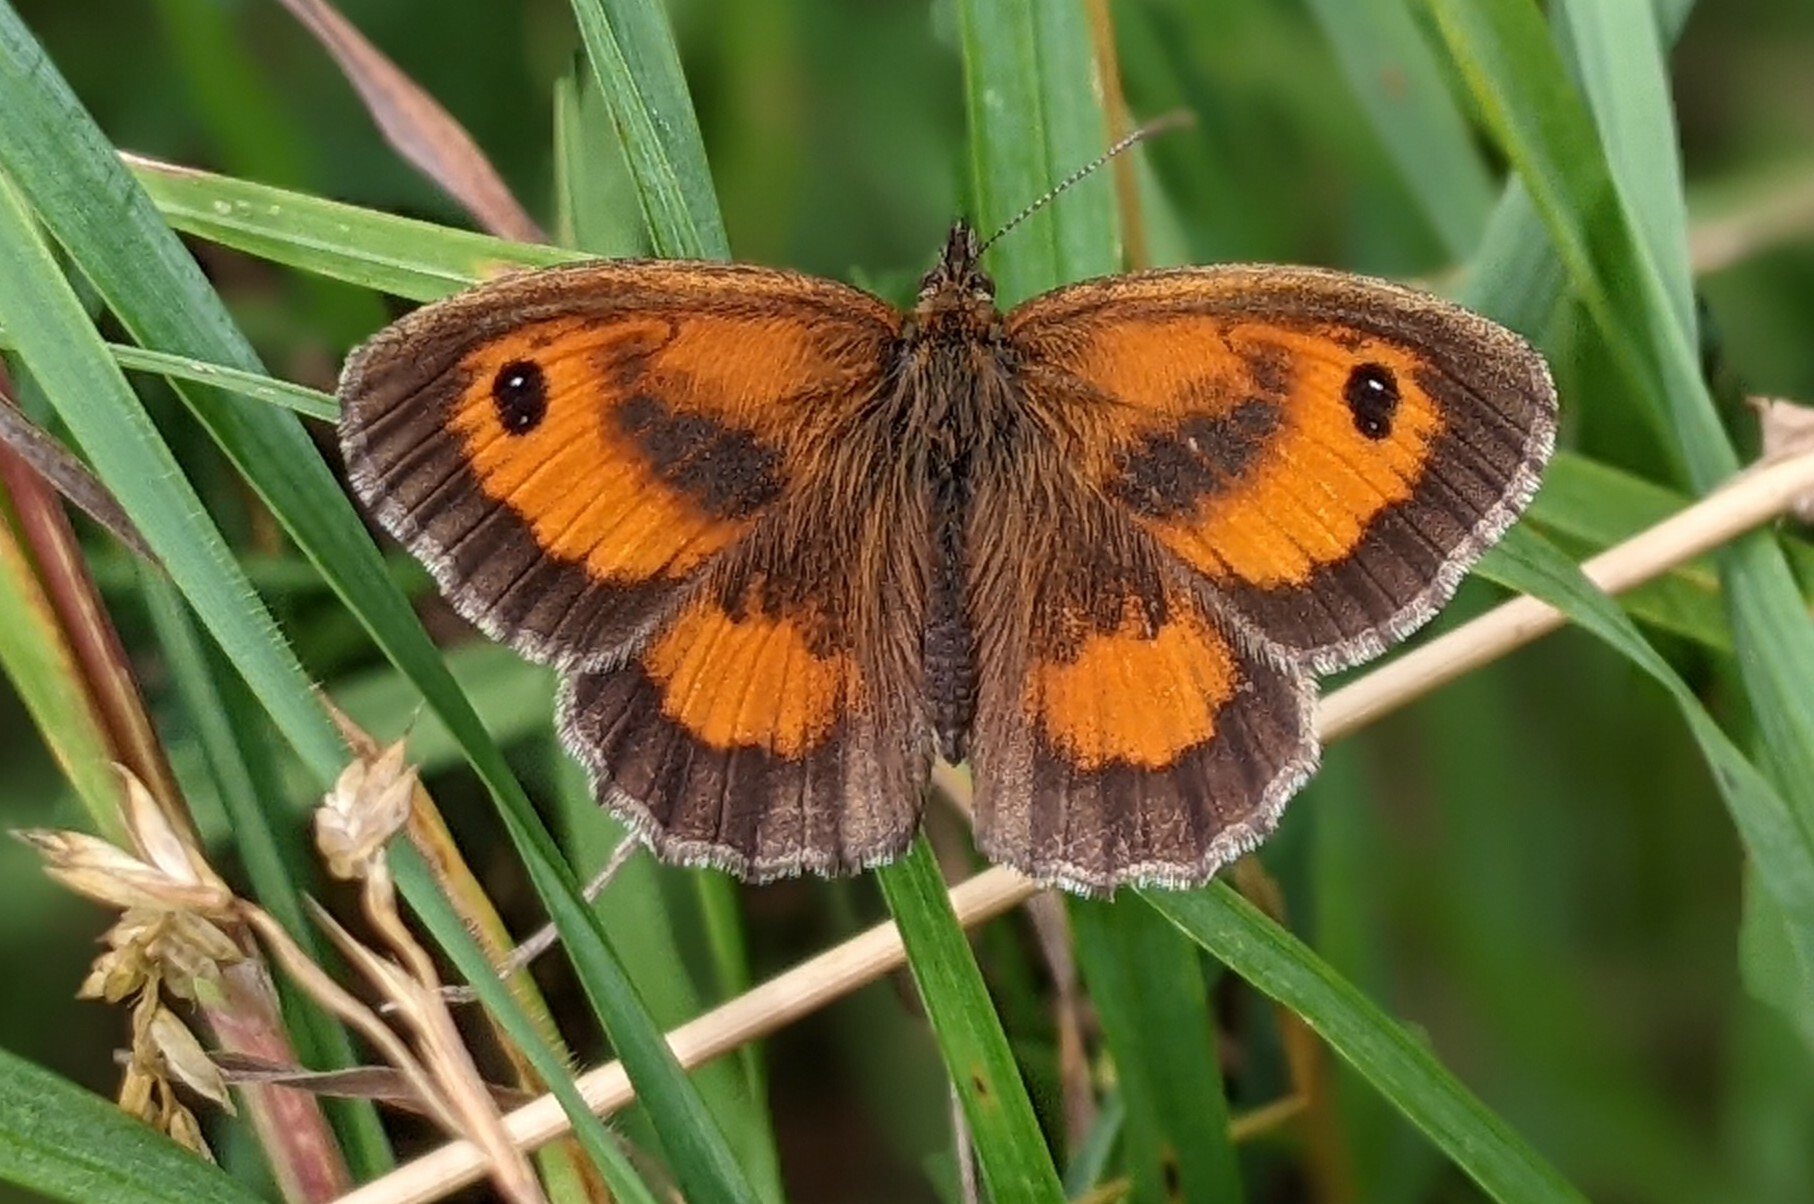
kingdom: Animalia
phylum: Arthropoda
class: Insecta
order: Lepidoptera
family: Nymphalidae
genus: Pyronia
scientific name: Pyronia tithonus
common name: Gatekeeper
